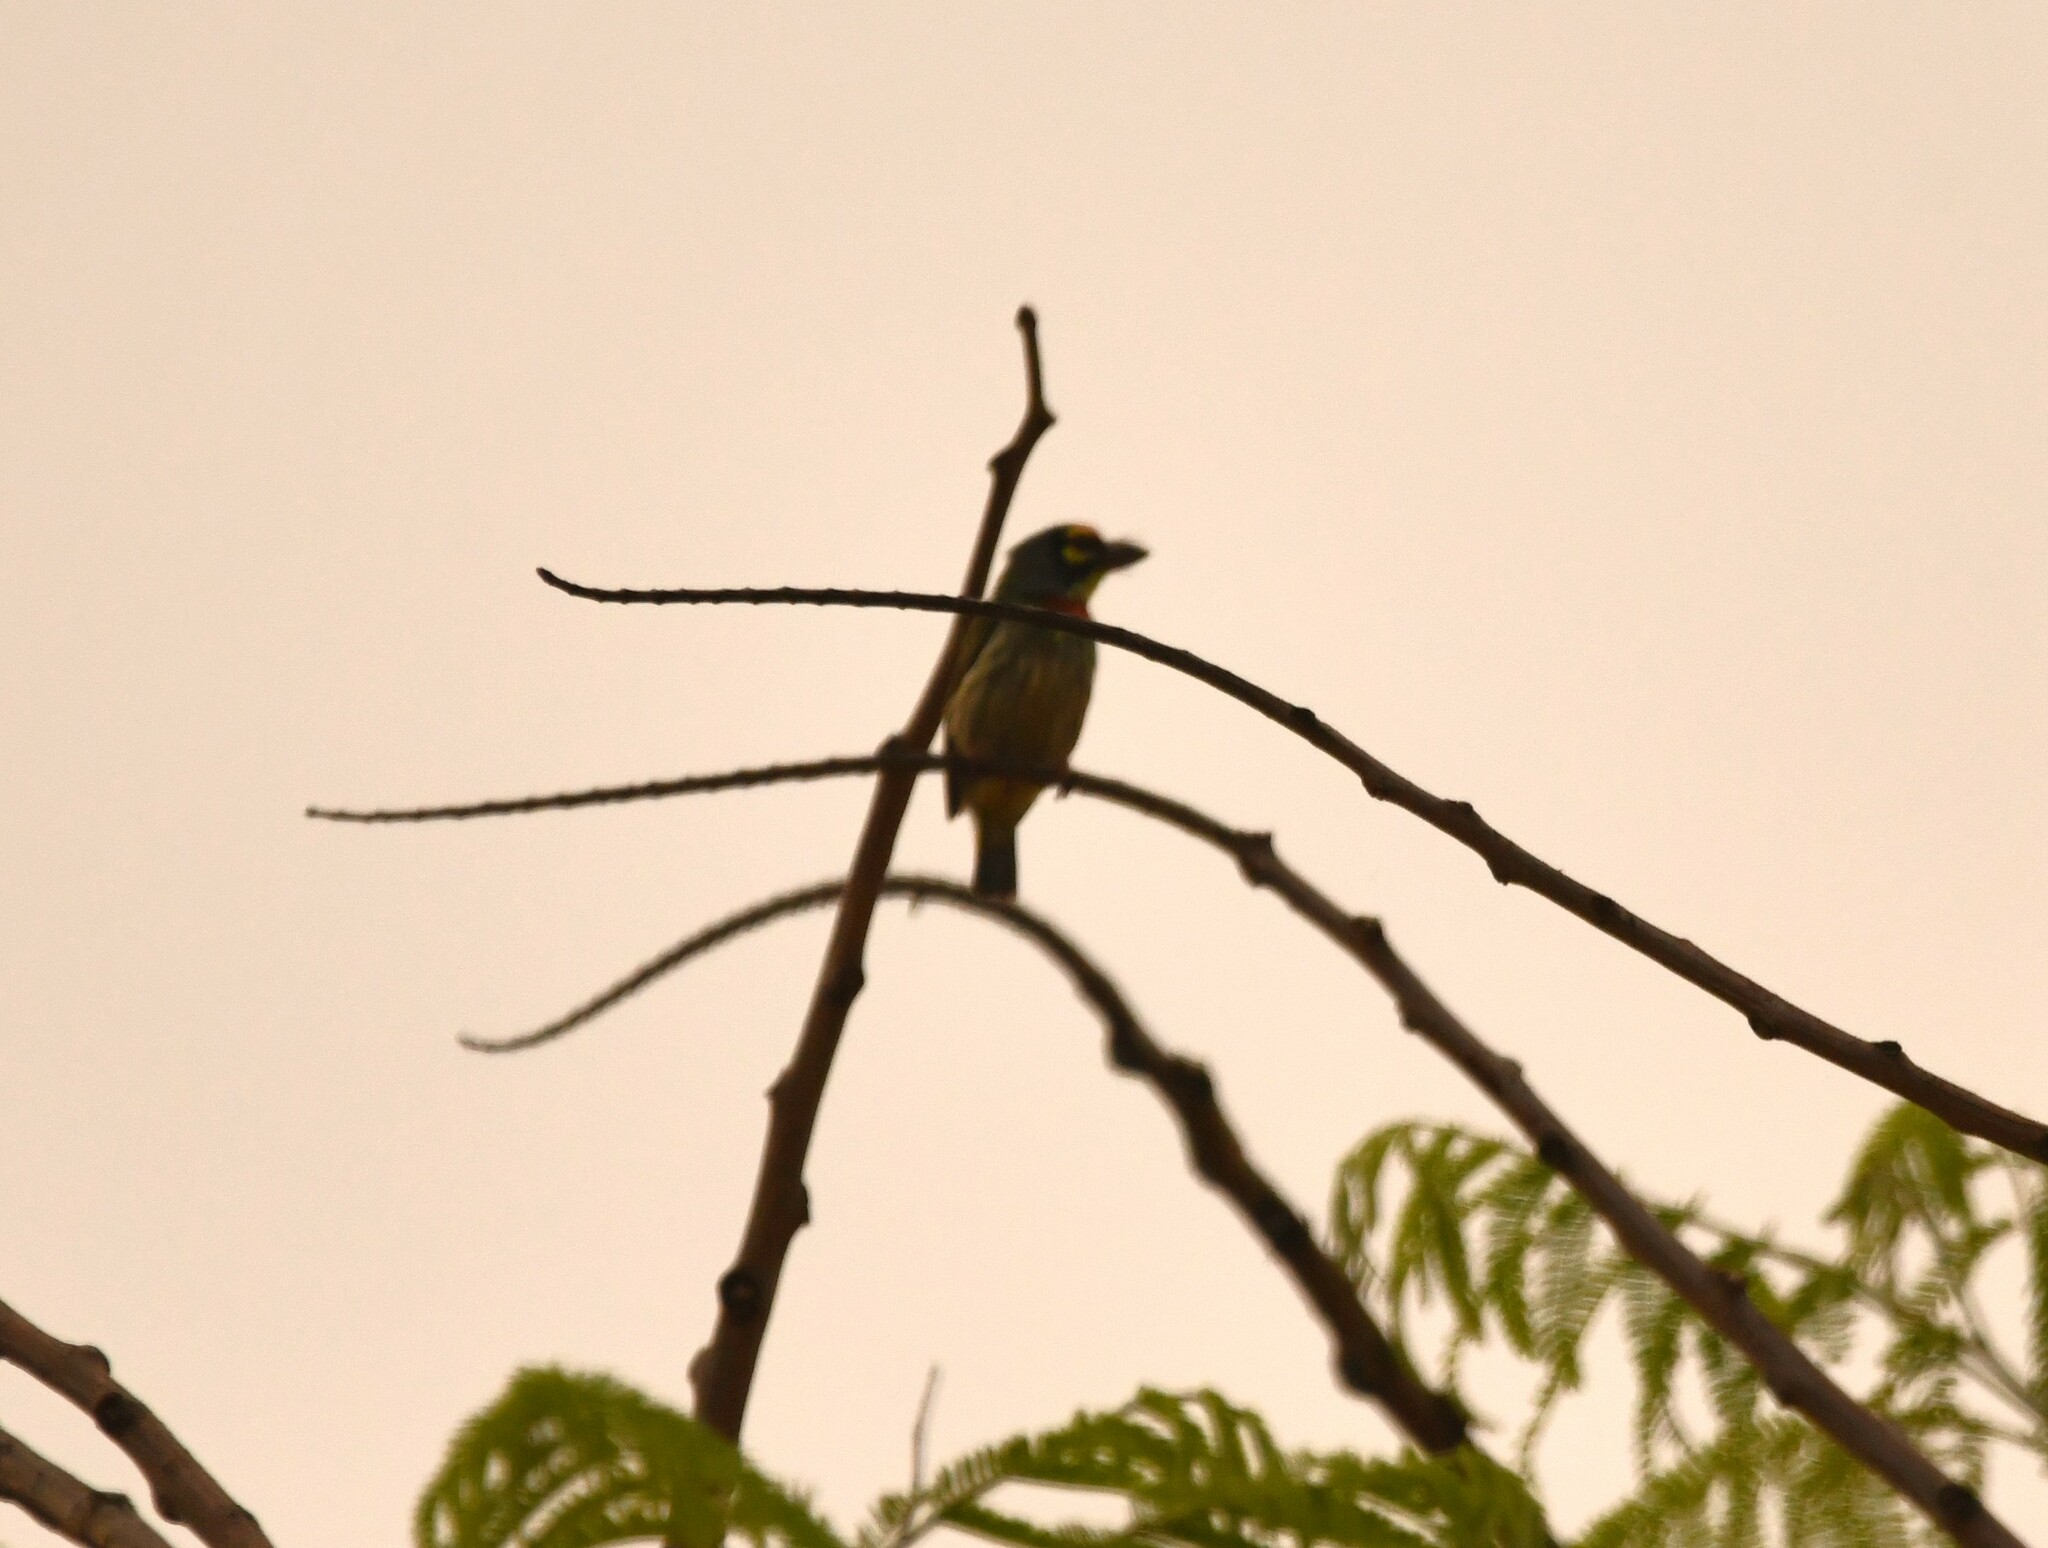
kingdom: Animalia
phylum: Chordata
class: Aves
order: Piciformes
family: Megalaimidae
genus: Psilopogon
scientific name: Psilopogon haemacephalus
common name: Coppersmith barbet
